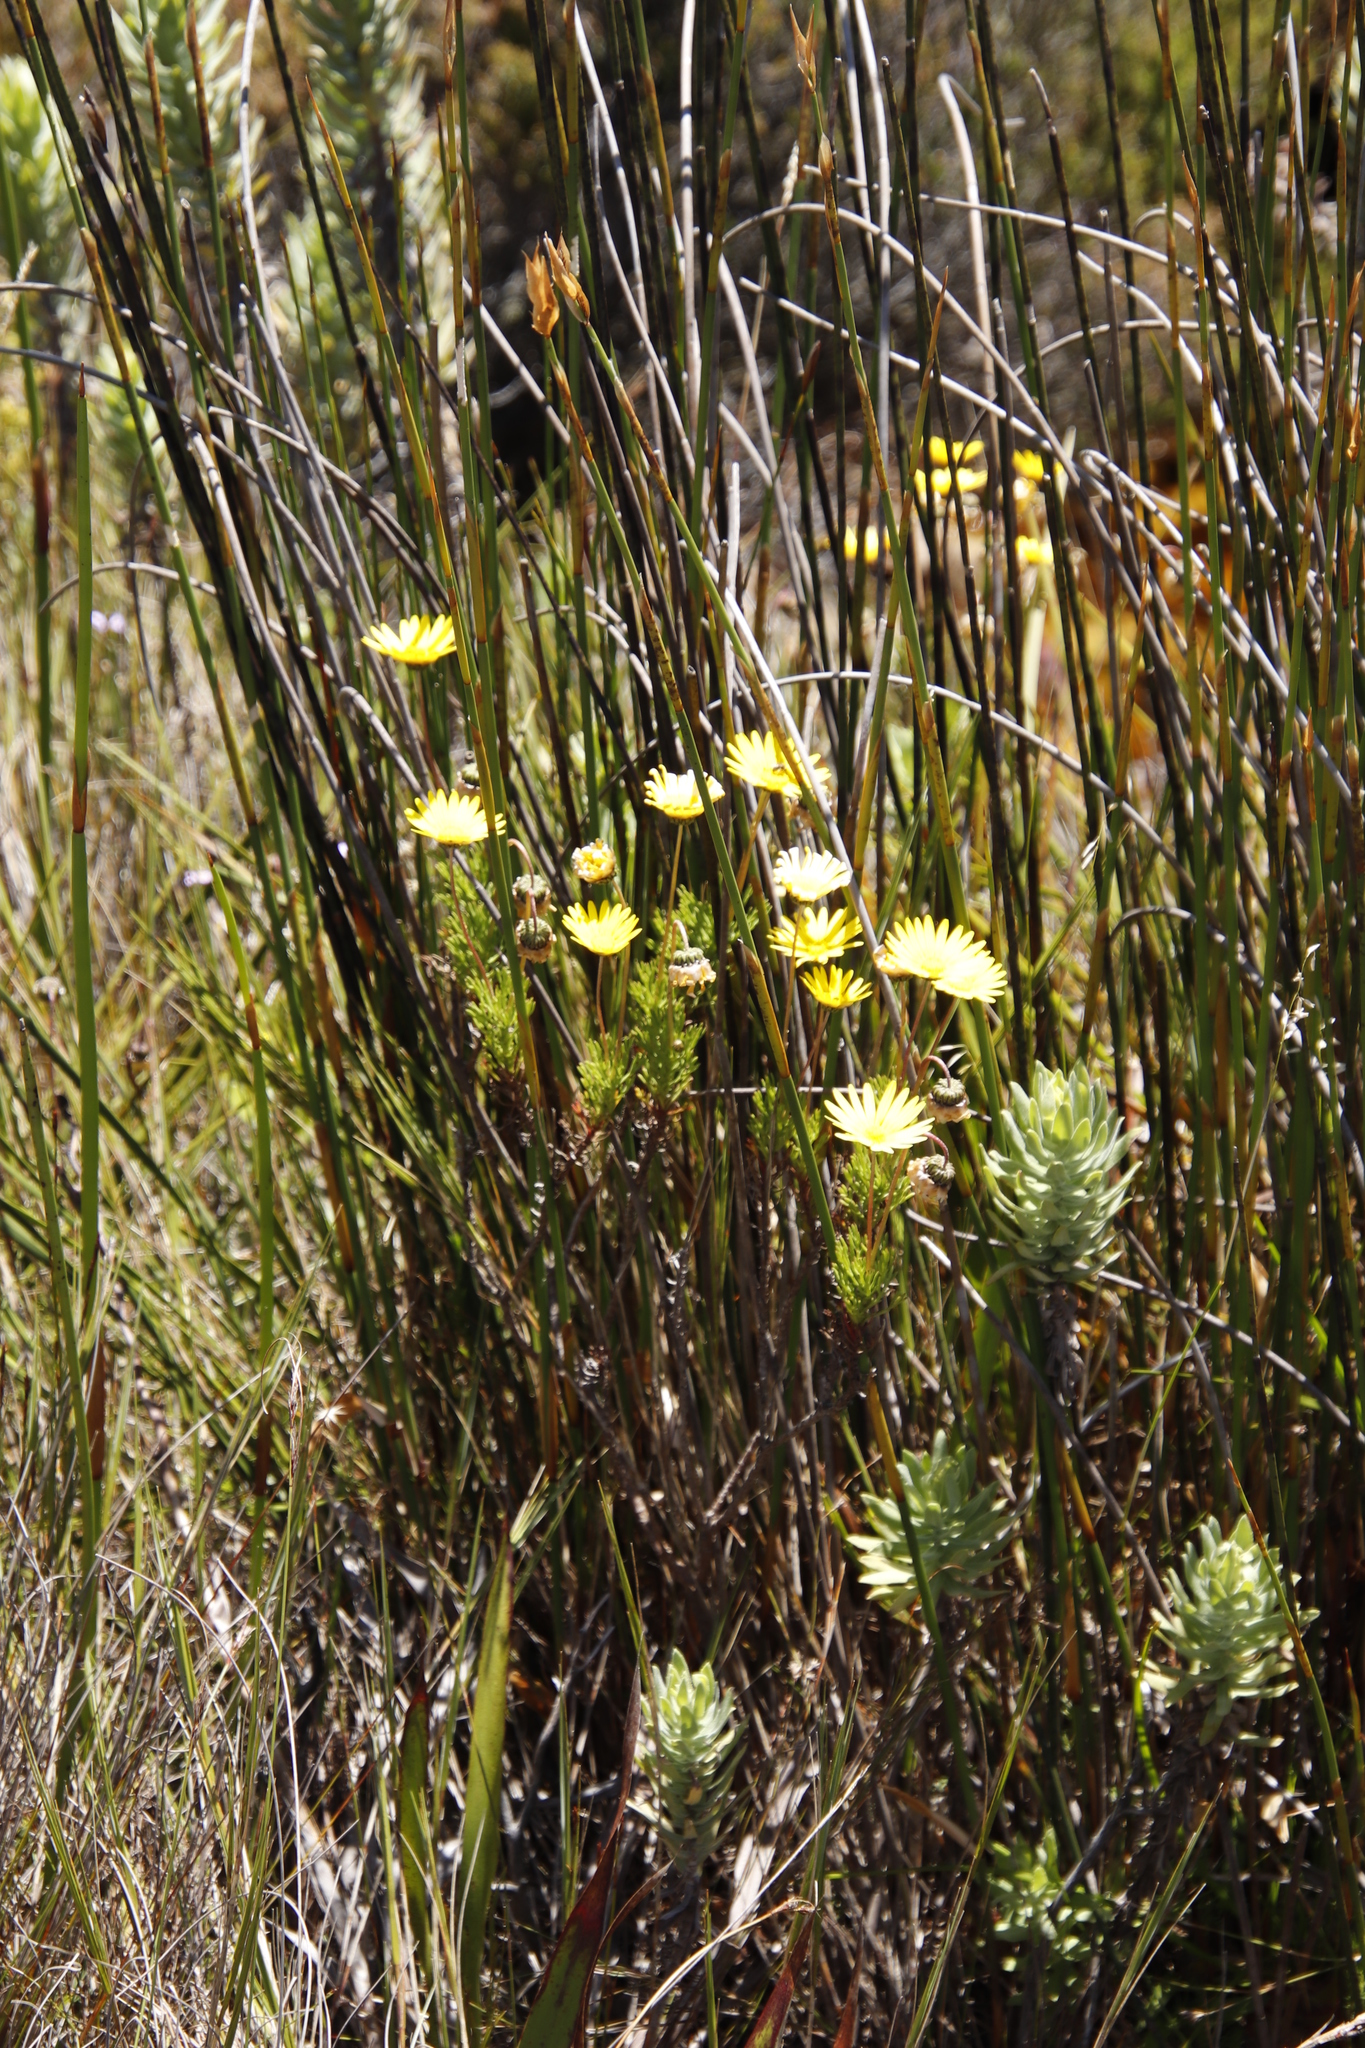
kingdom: Plantae
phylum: Tracheophyta
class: Magnoliopsida
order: Asterales
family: Asteraceae
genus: Euryops
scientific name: Euryops abrotanifolius
